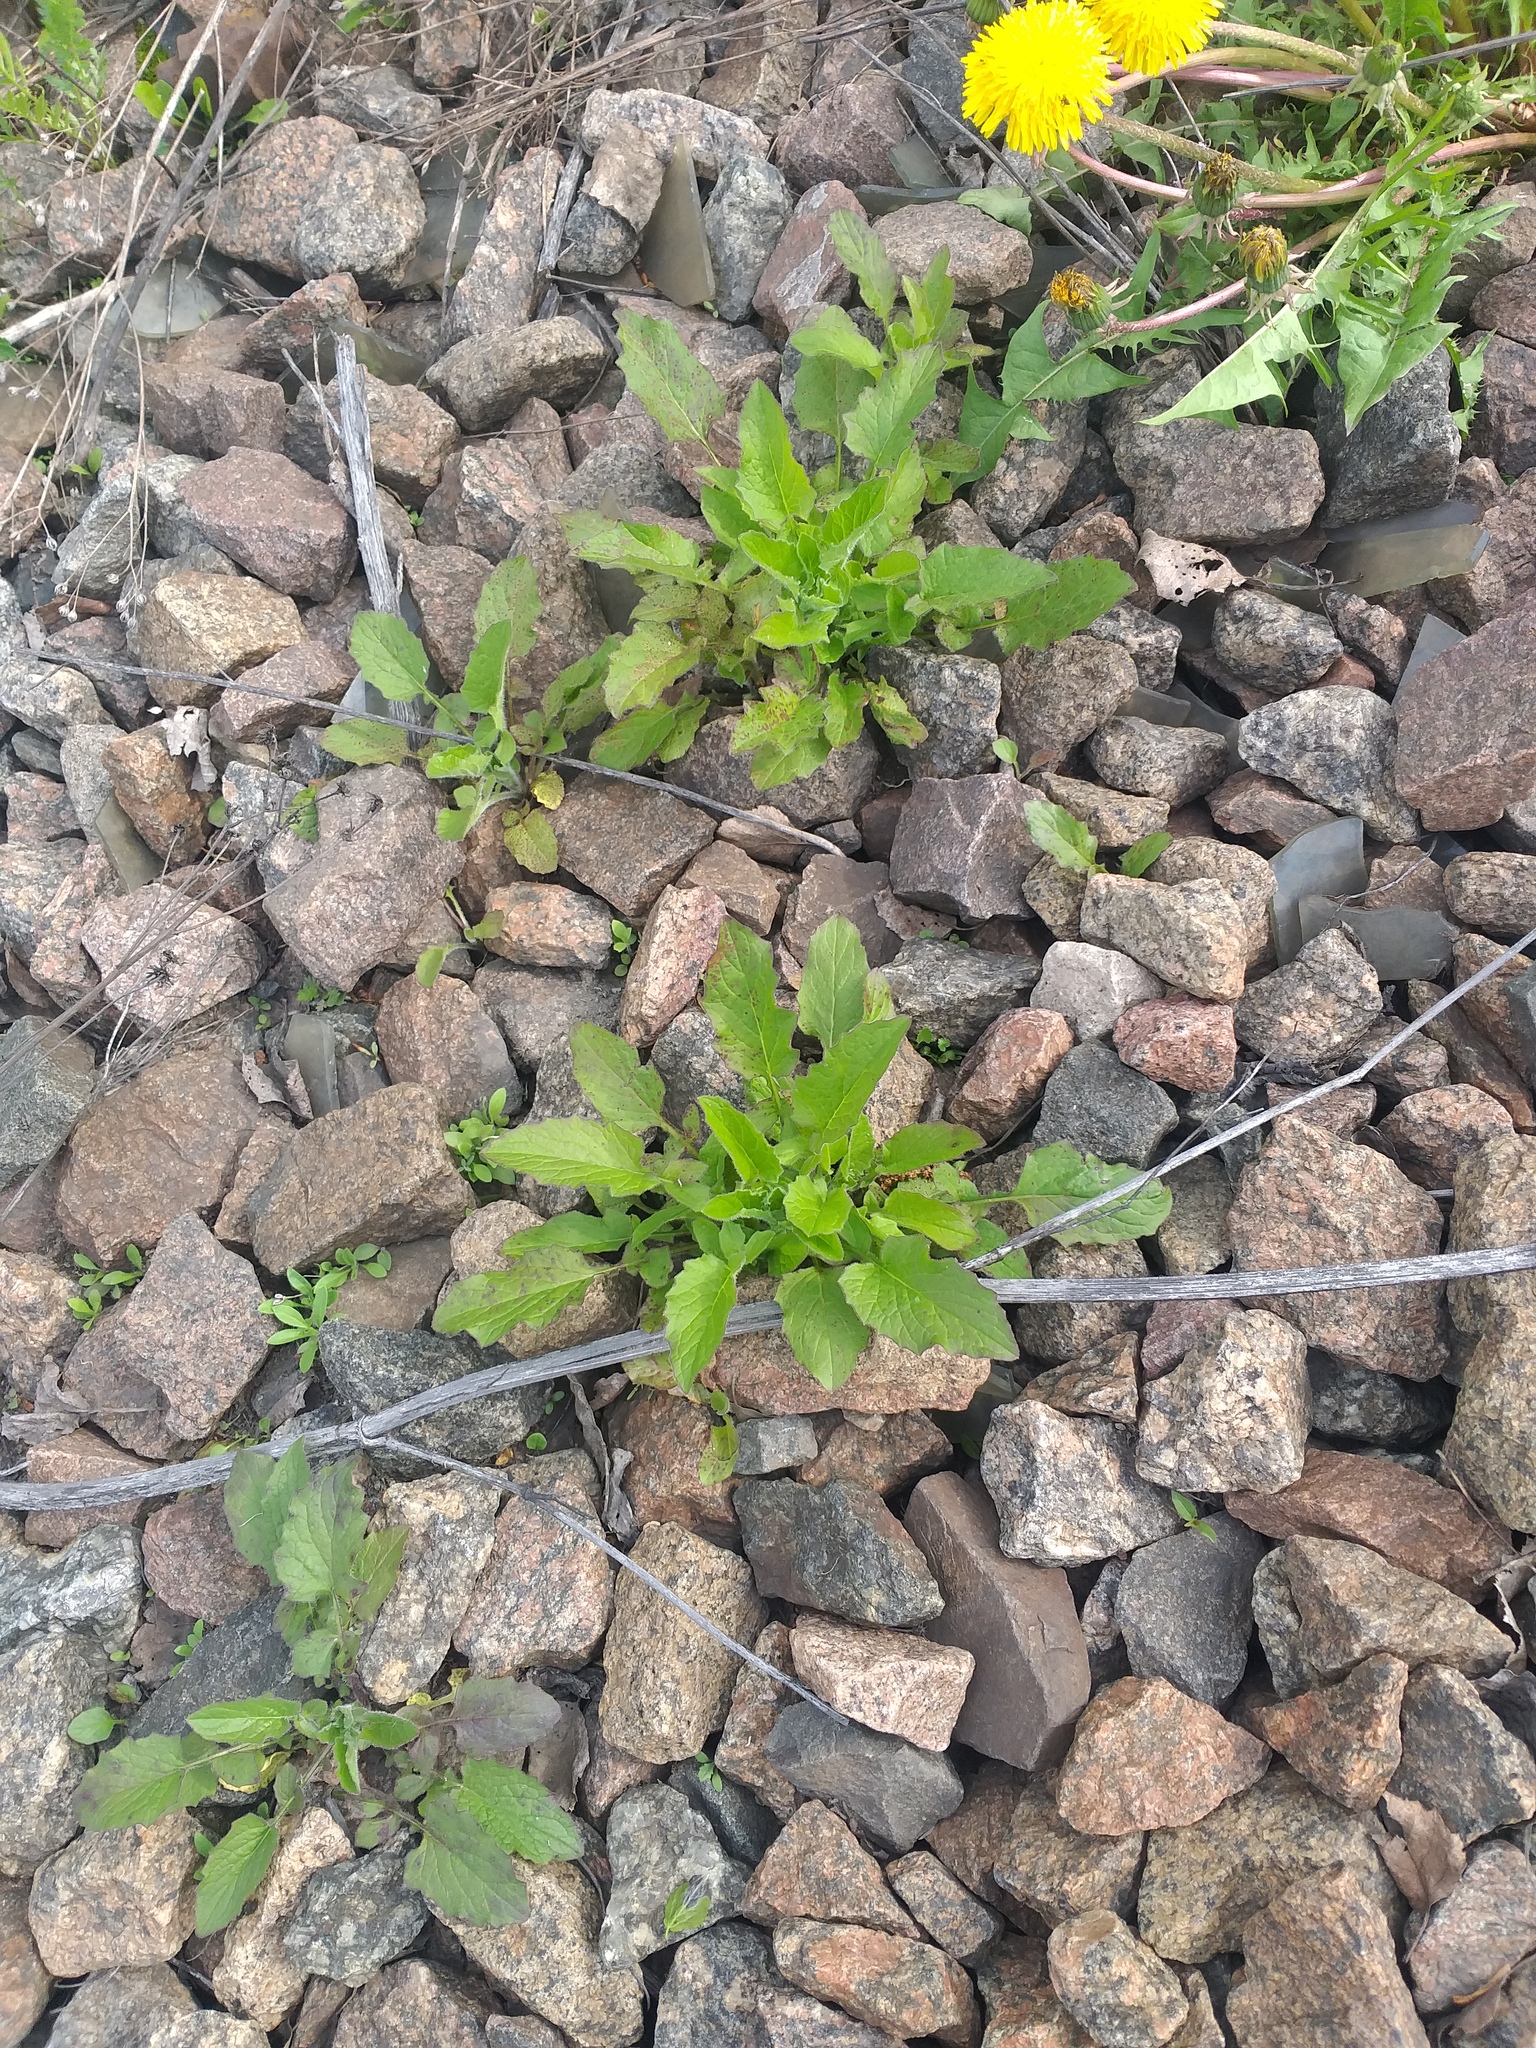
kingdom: Plantae
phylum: Tracheophyta
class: Magnoliopsida
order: Asterales
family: Asteraceae
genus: Lapsana
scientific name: Lapsana communis
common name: Nipplewort
